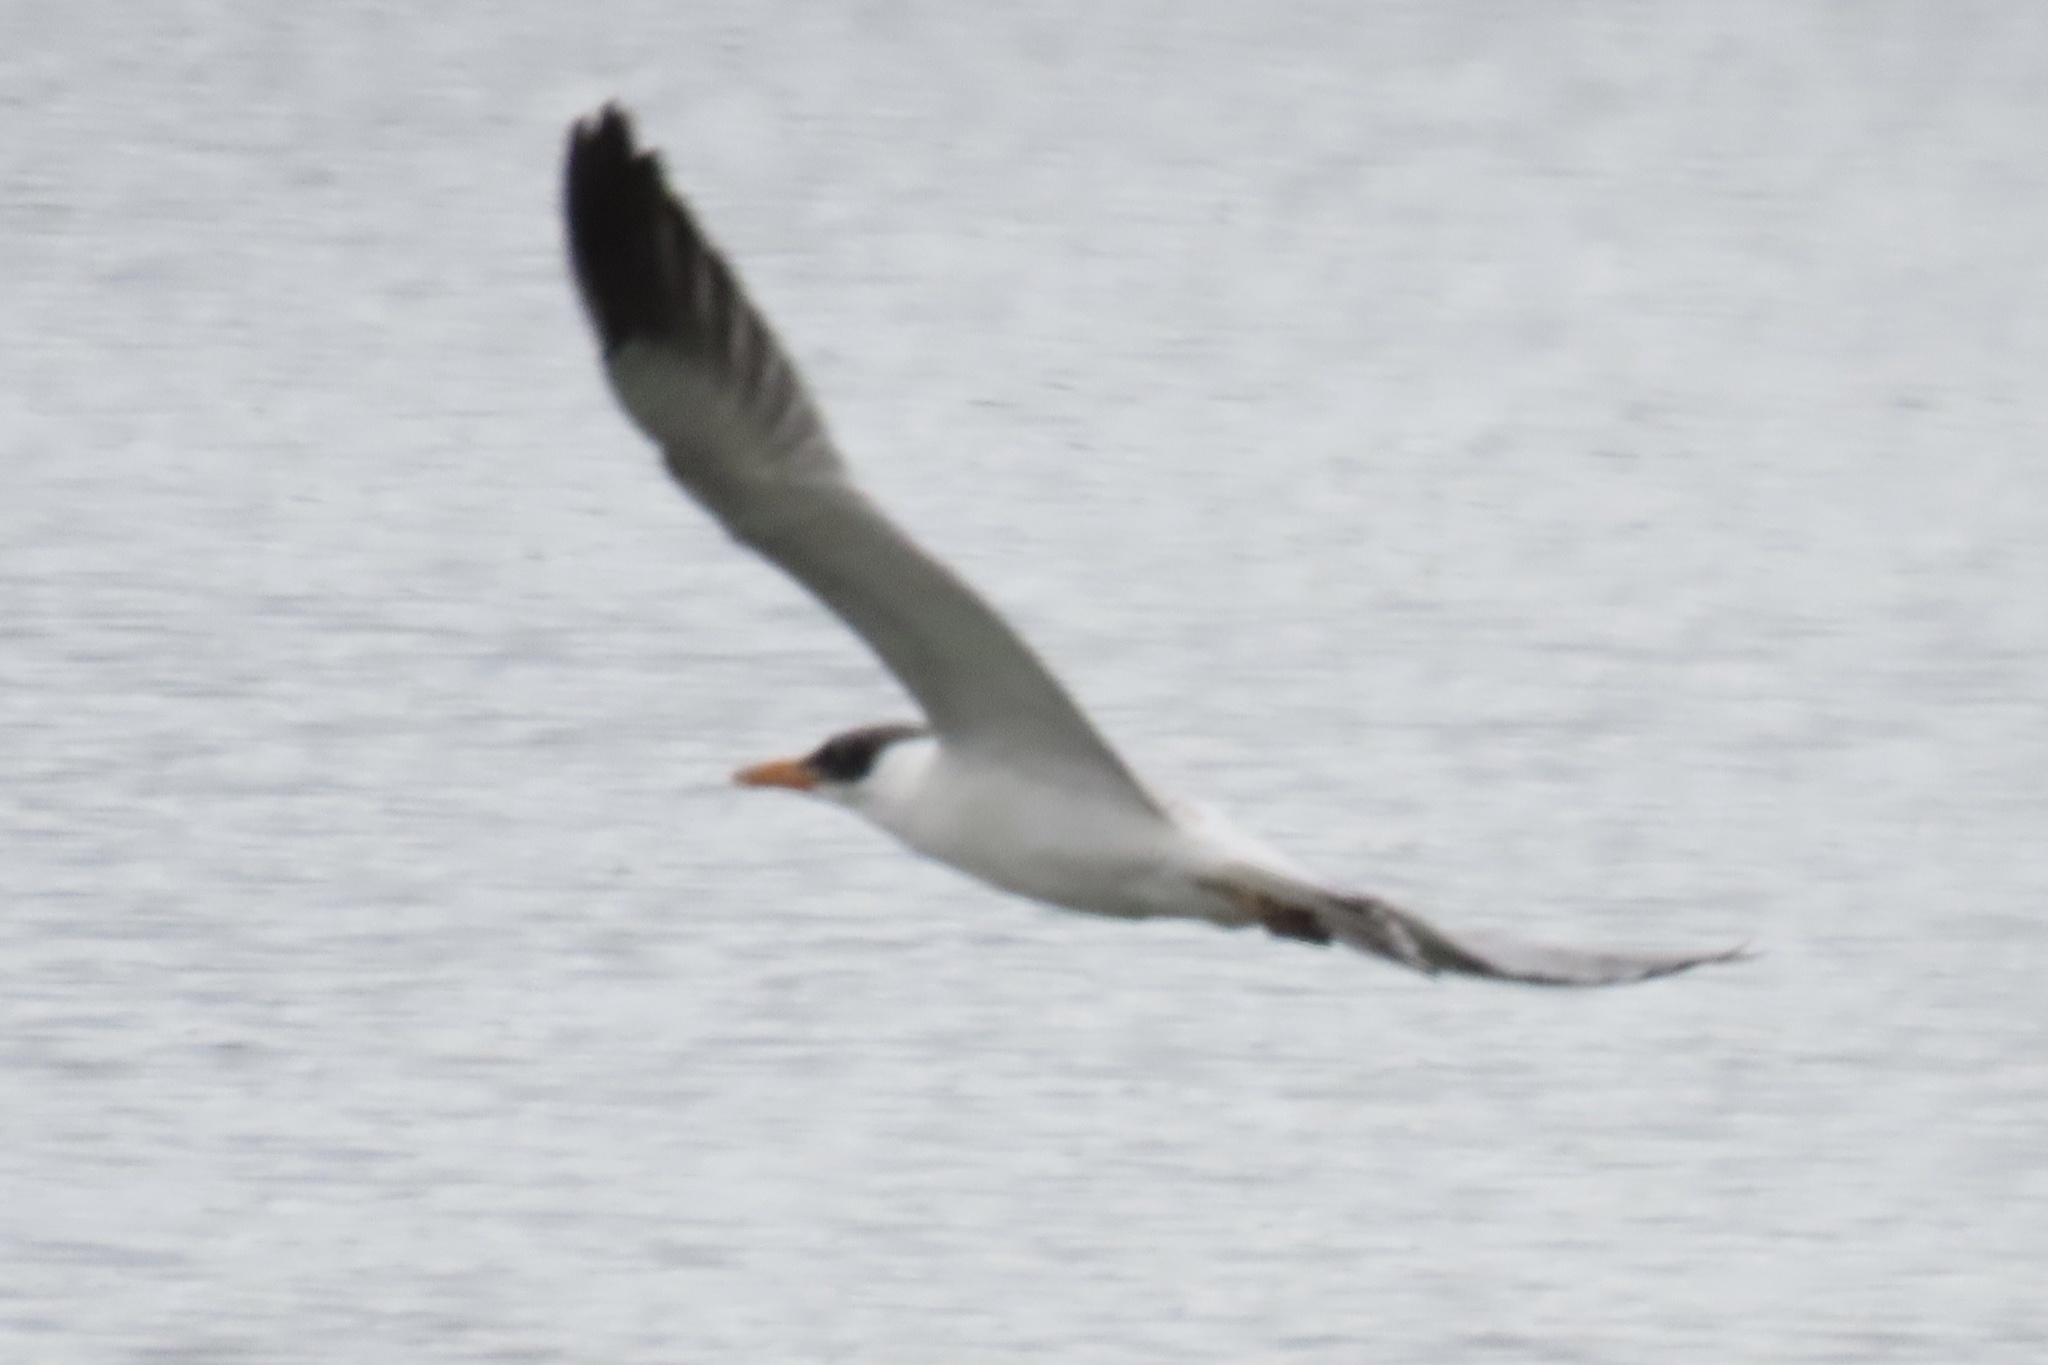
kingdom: Animalia
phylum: Chordata
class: Aves
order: Charadriiformes
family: Laridae
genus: Hydroprogne
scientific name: Hydroprogne caspia
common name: Caspian tern
